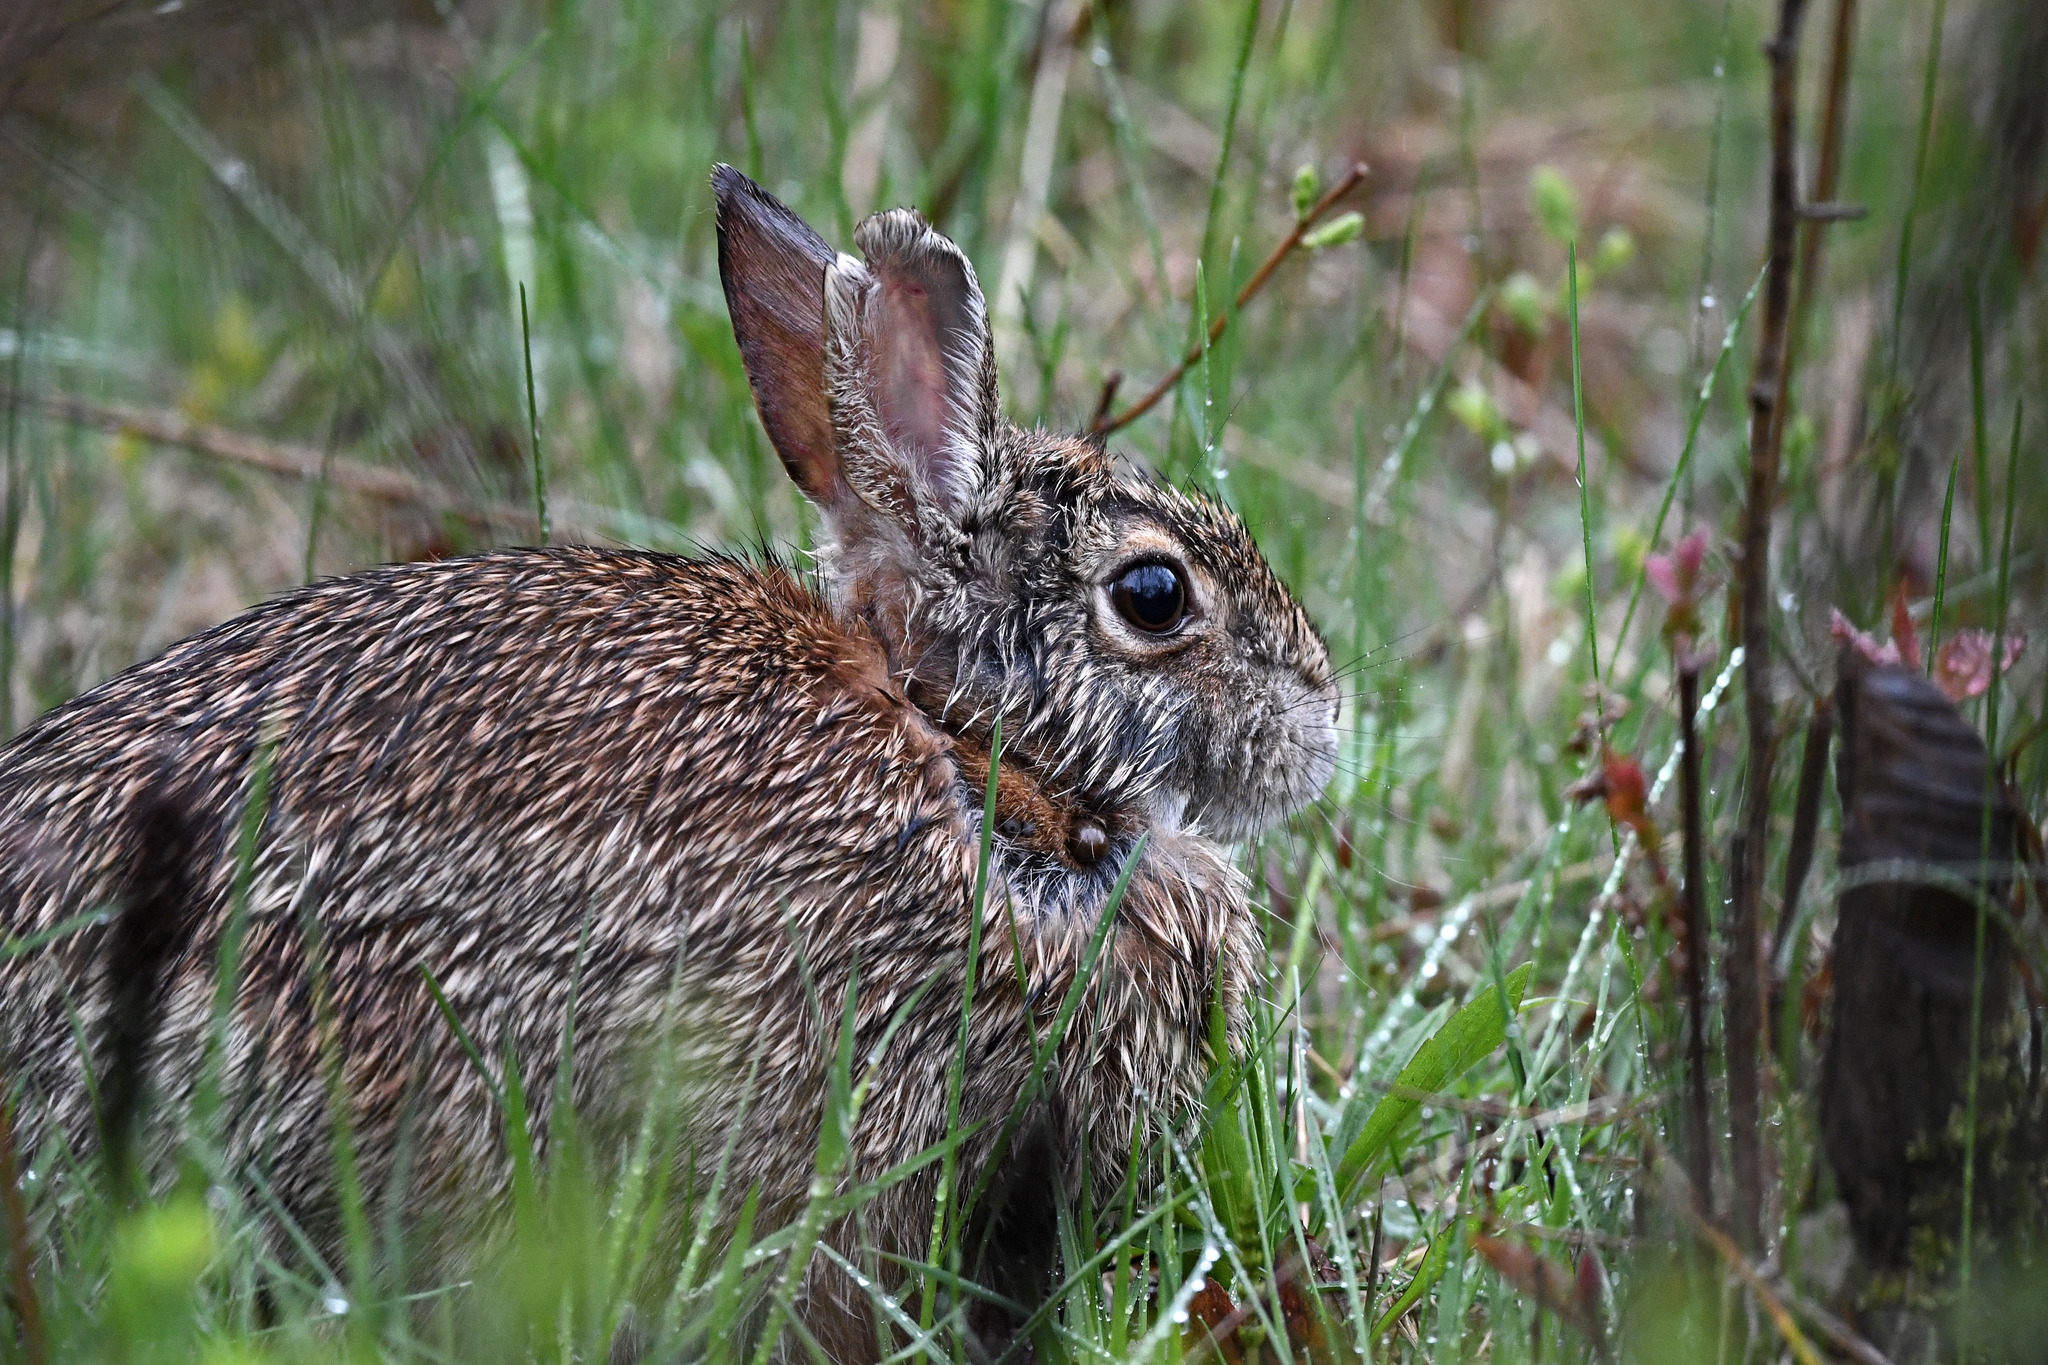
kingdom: Animalia
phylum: Chordata
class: Mammalia
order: Lagomorpha
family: Leporidae
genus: Sylvilagus
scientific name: Sylvilagus floridanus
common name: Eastern cottontail
